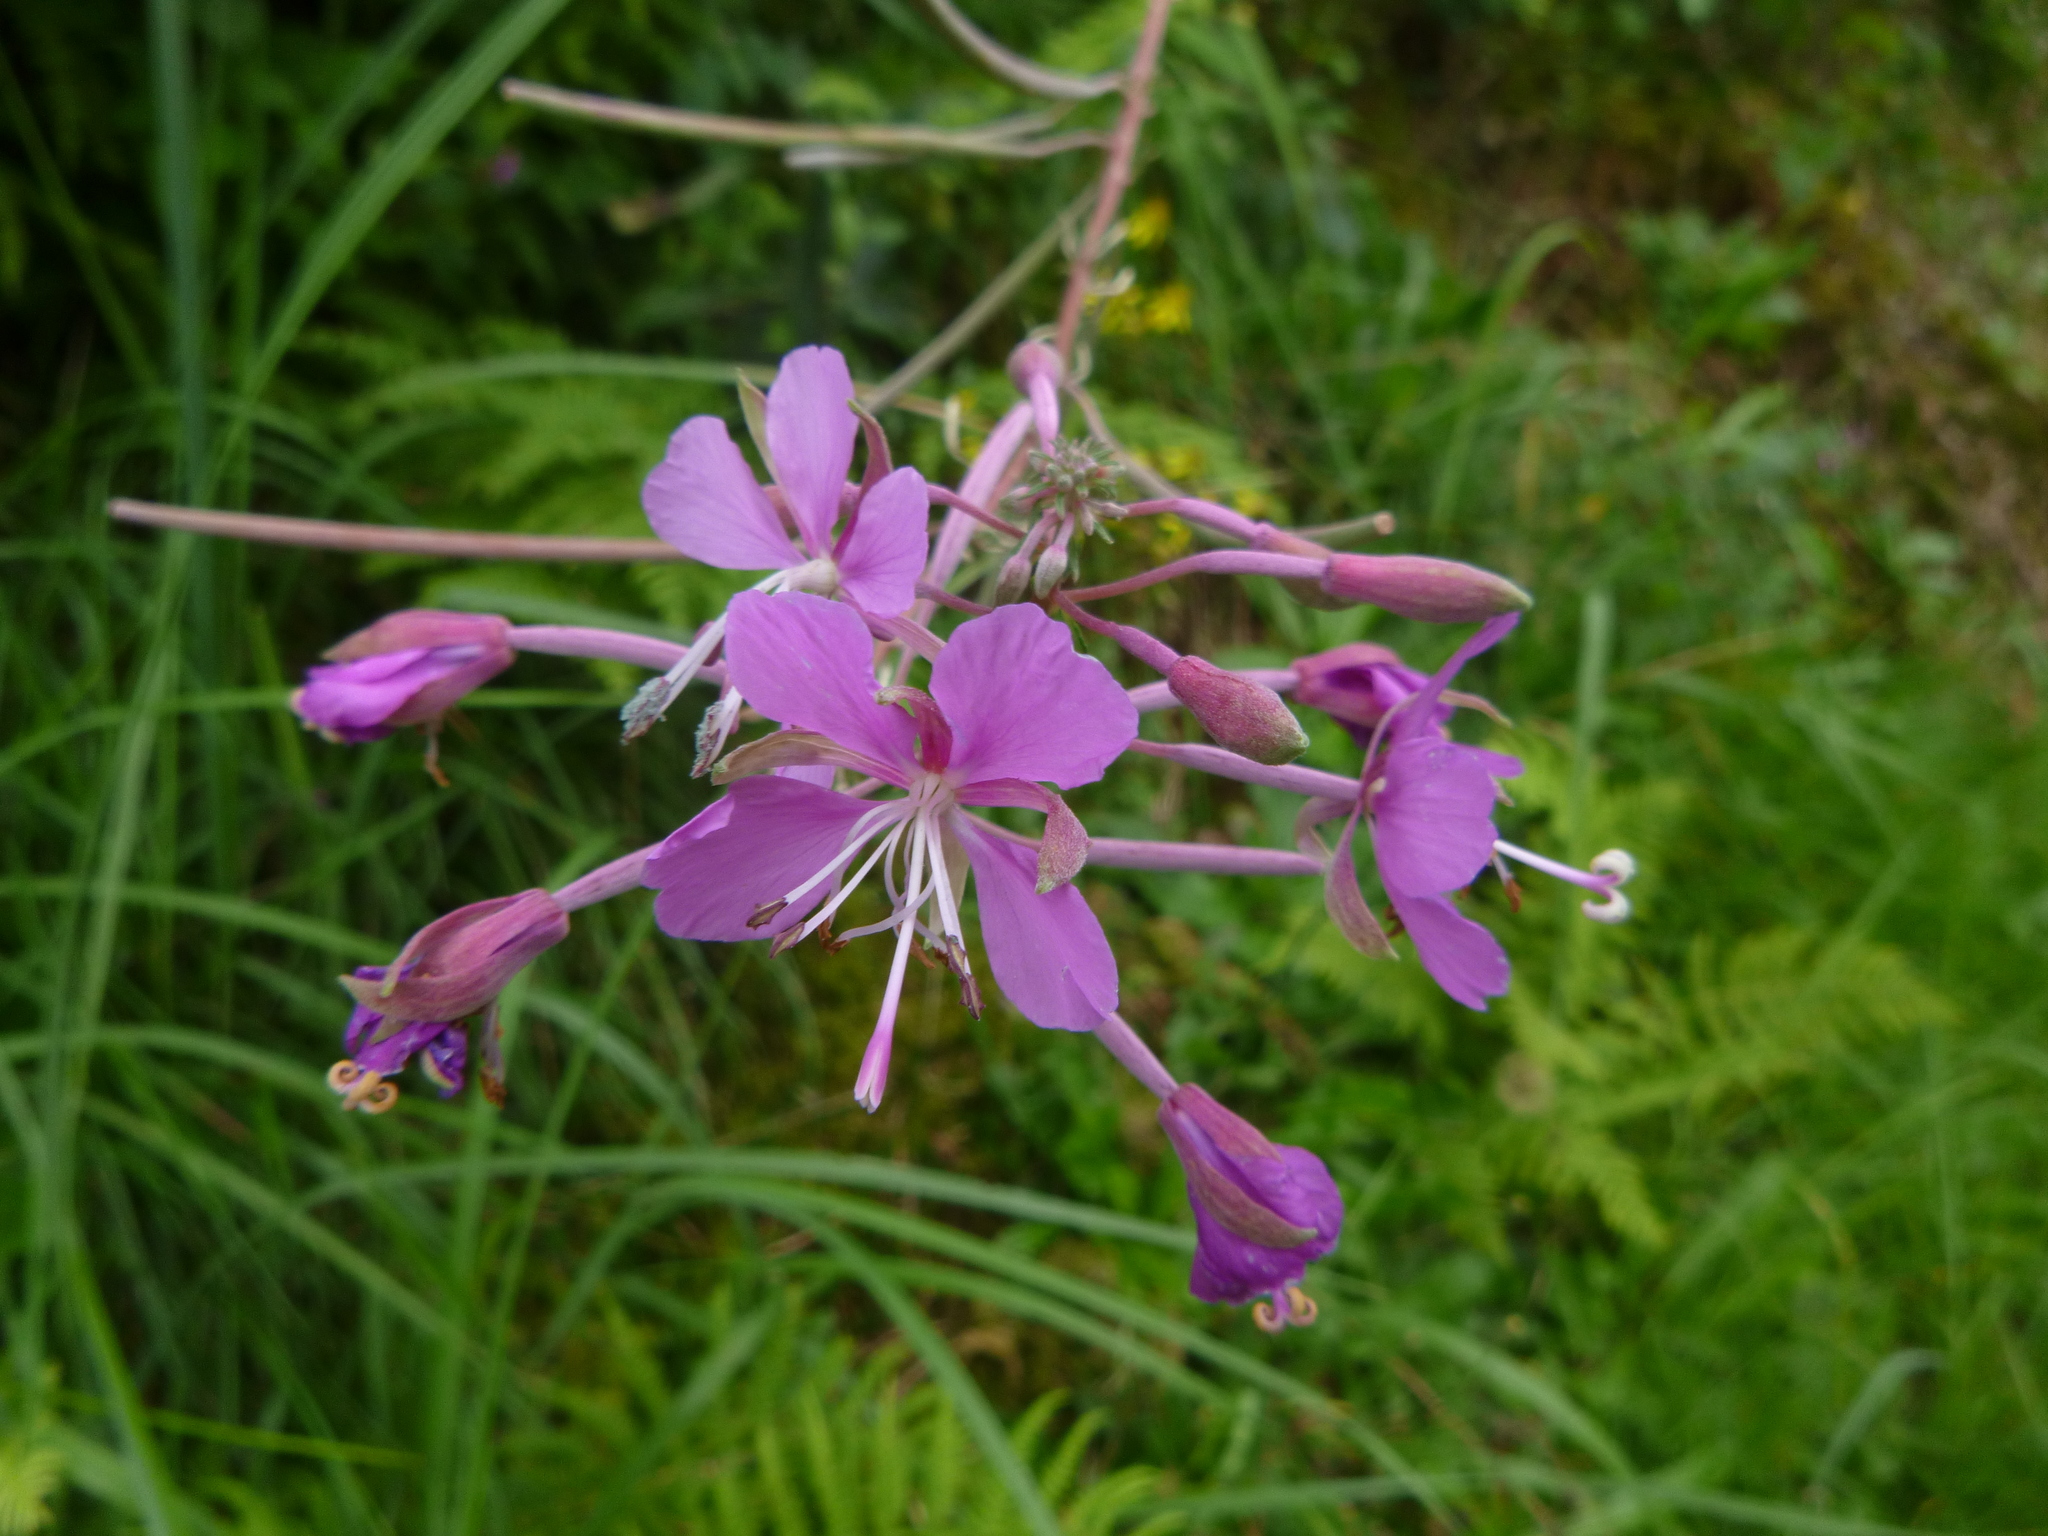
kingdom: Plantae
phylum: Tracheophyta
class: Magnoliopsida
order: Myrtales
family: Onagraceae
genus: Chamaenerion
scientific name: Chamaenerion angustifolium
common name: Fireweed
